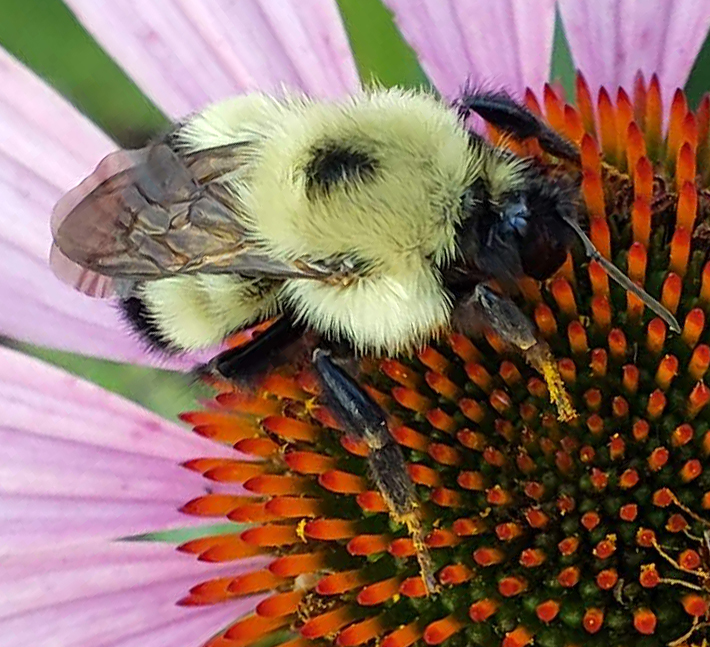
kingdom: Animalia
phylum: Arthropoda
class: Insecta
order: Hymenoptera
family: Apidae
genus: Bombus
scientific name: Bombus vagans
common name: Half-black bumble bee
